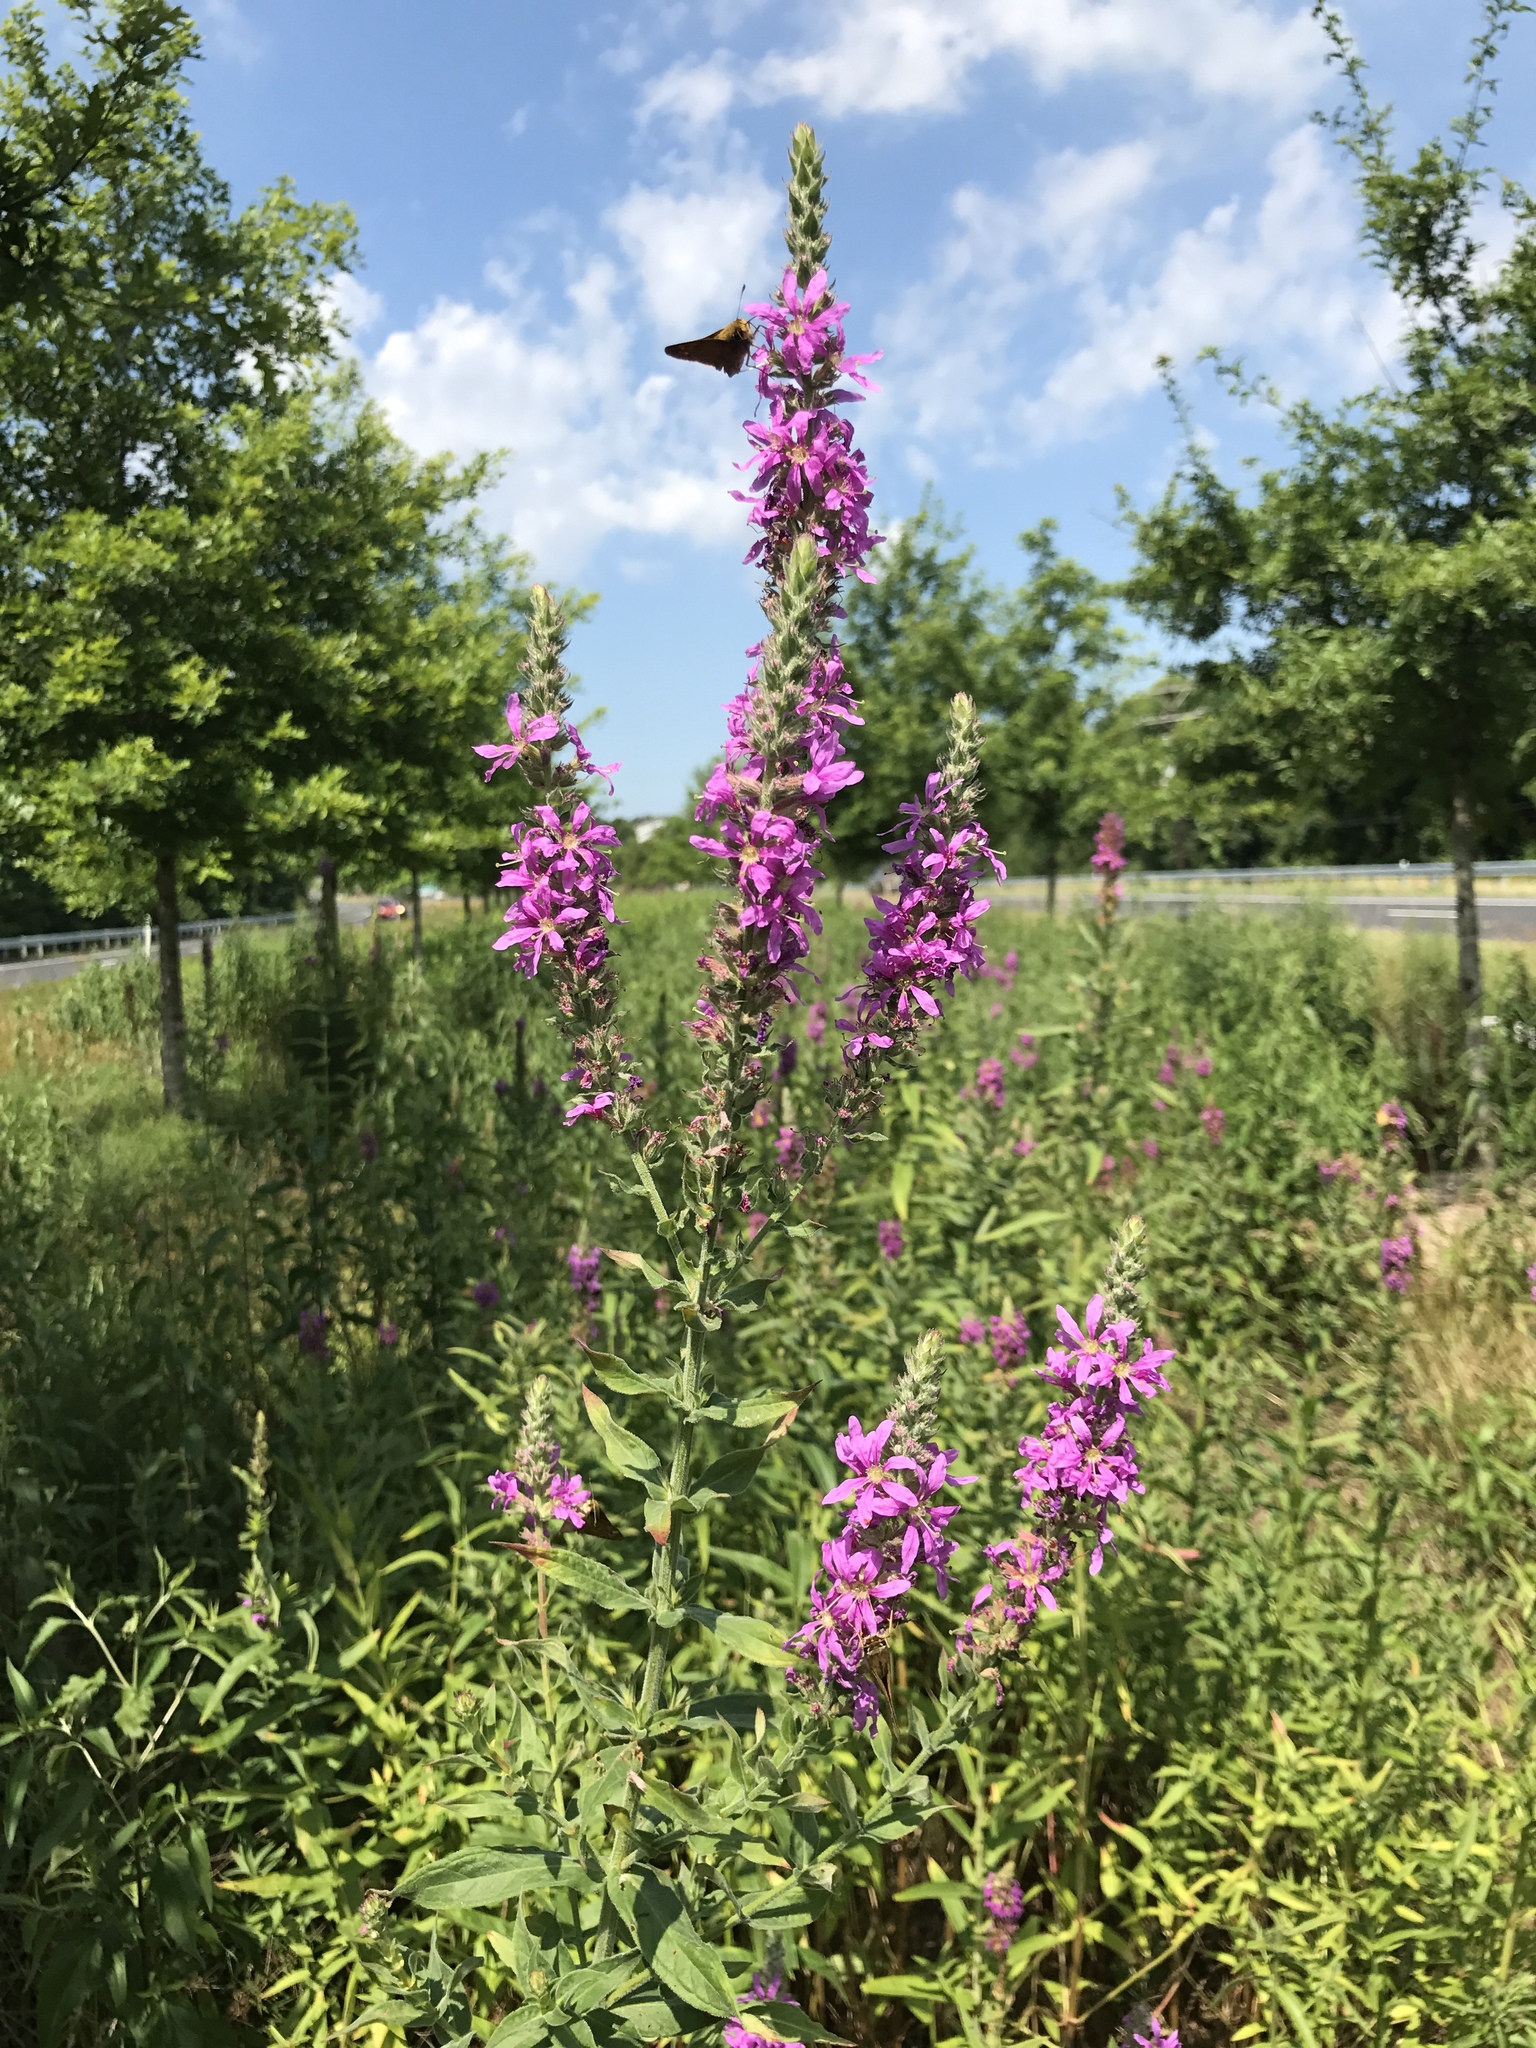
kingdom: Plantae
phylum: Tracheophyta
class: Magnoliopsida
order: Myrtales
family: Lythraceae
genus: Lythrum
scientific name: Lythrum salicaria
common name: Purple loosestrife
